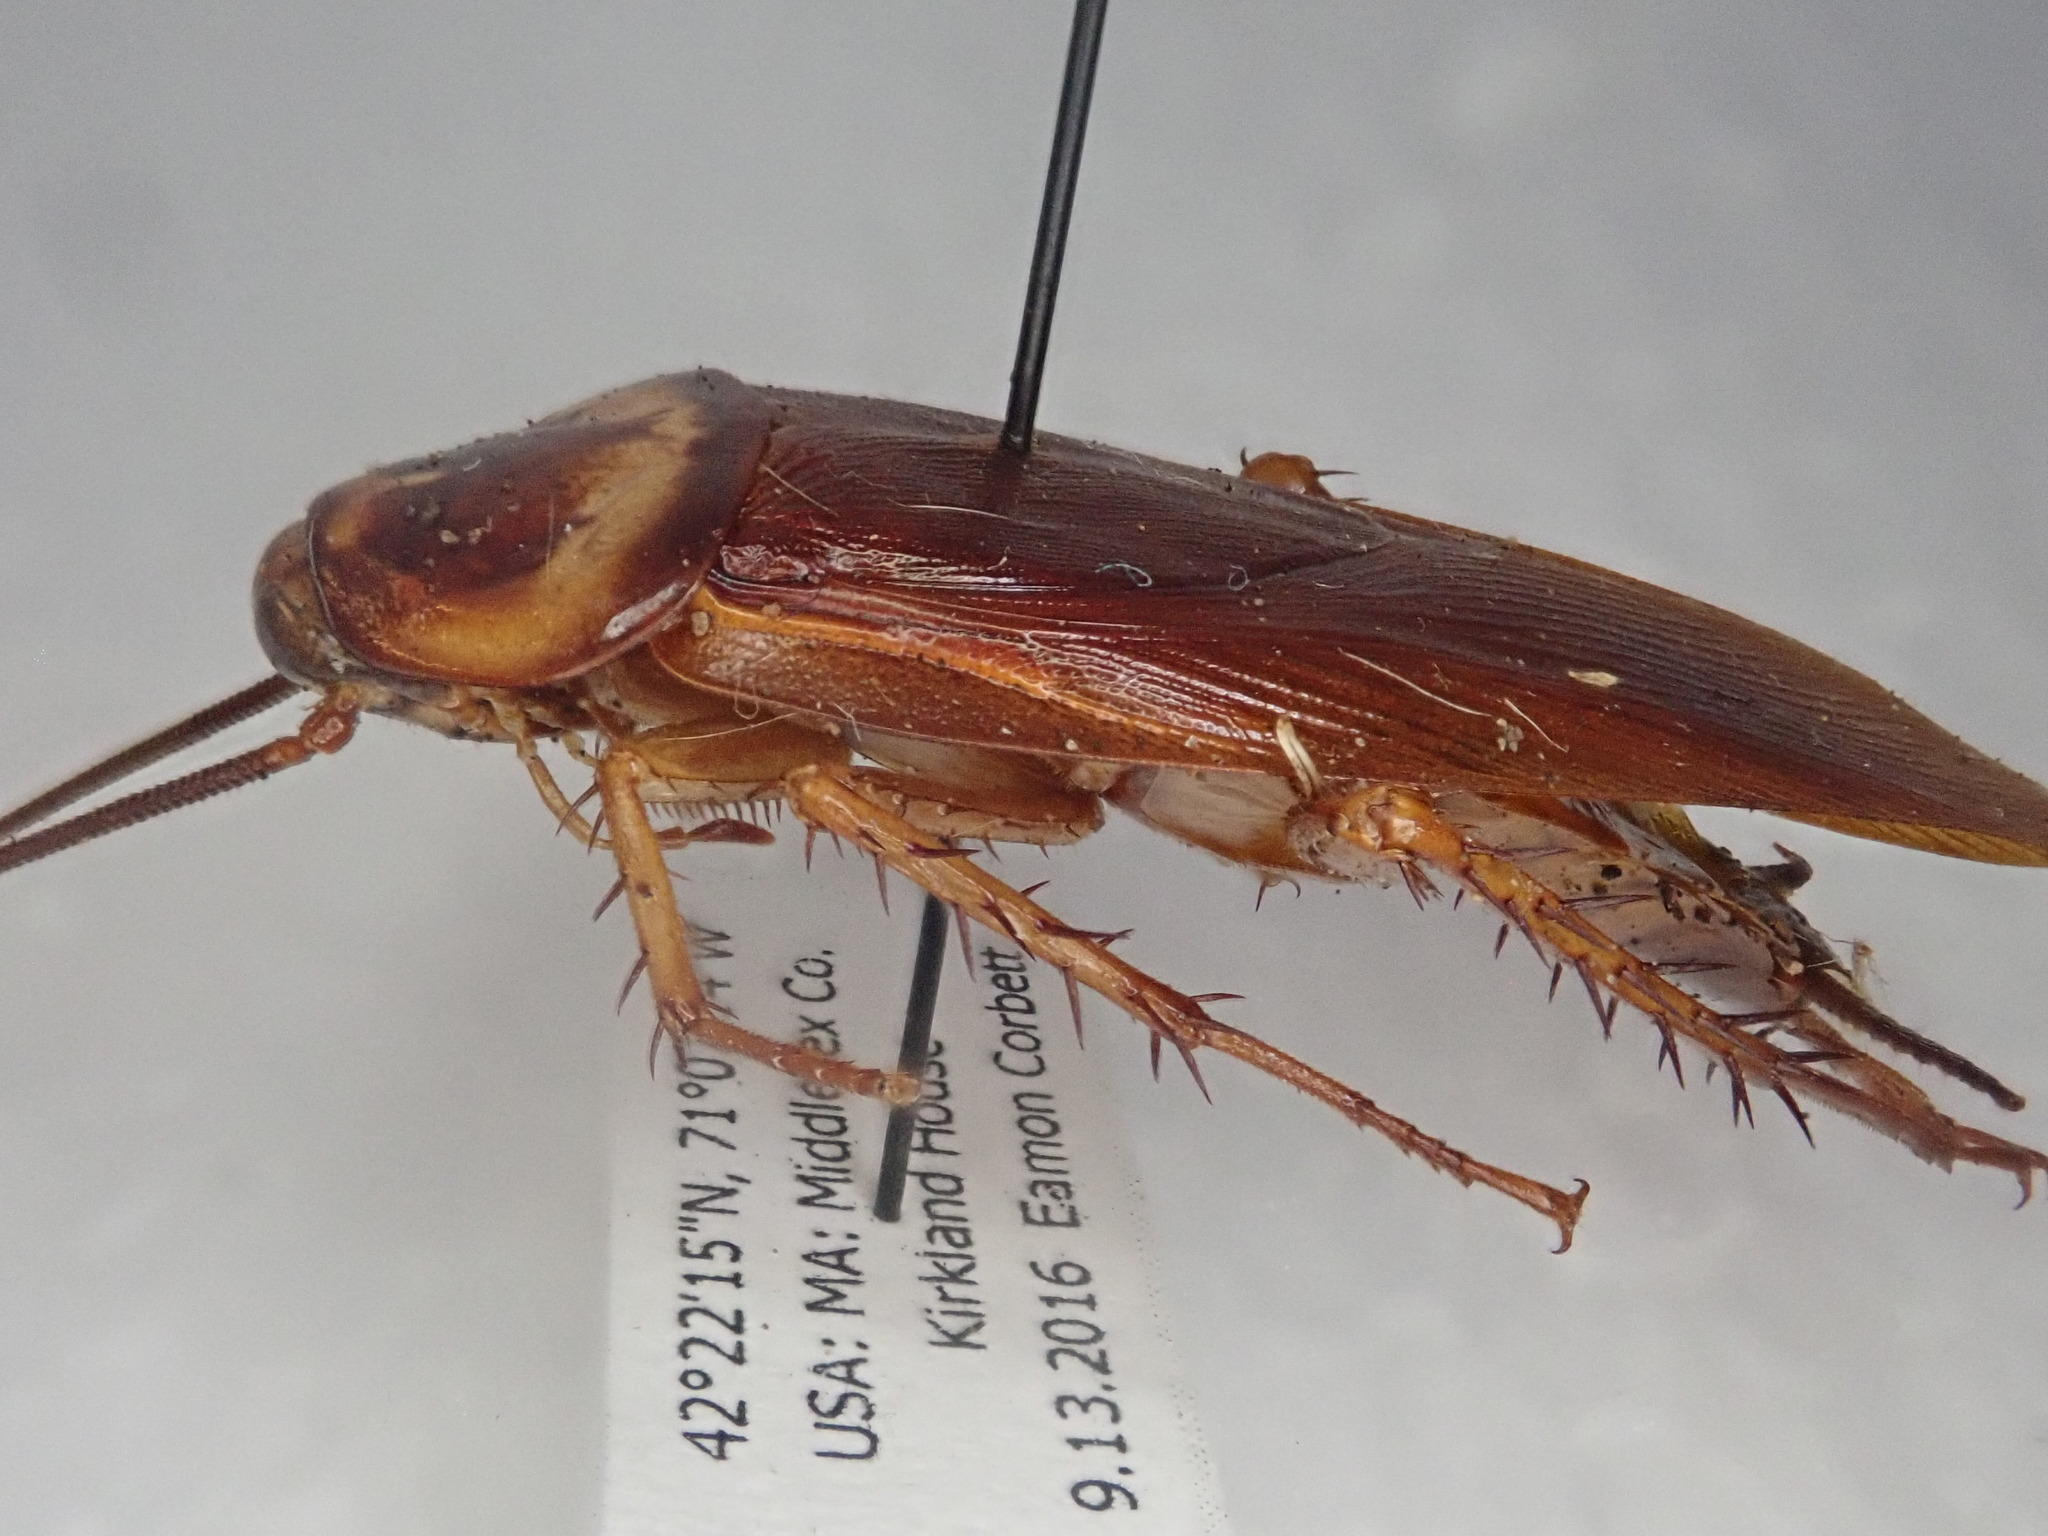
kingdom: Animalia
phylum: Arthropoda
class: Insecta
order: Blattodea
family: Blattidae
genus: Periplaneta
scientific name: Periplaneta americana
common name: American cockroach
